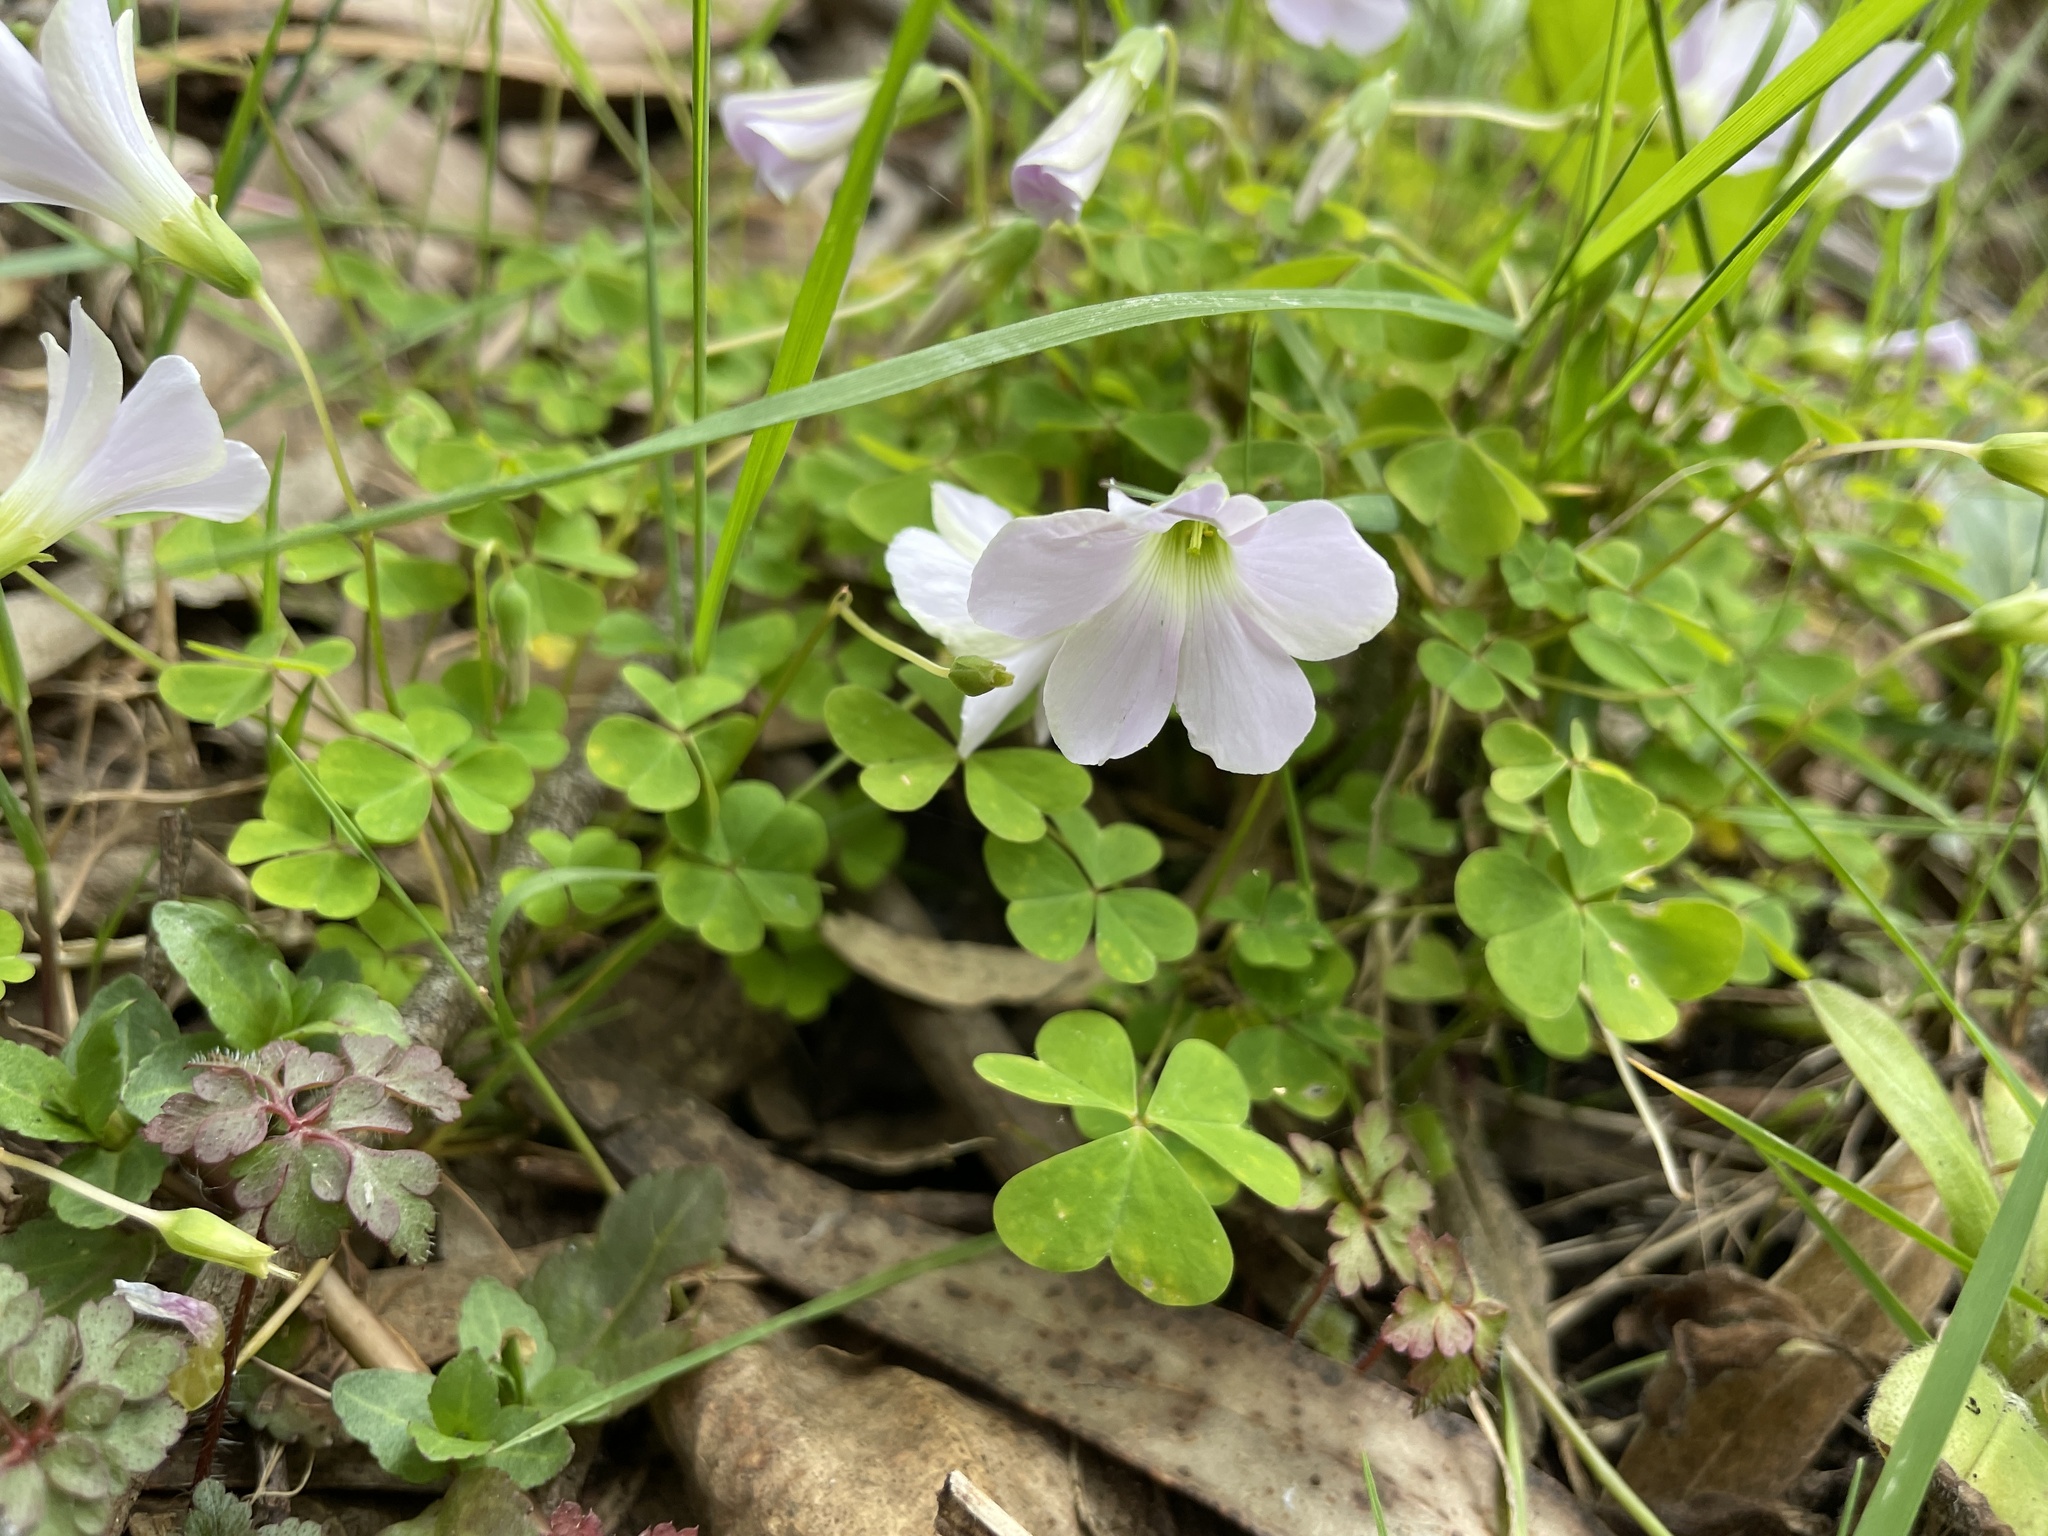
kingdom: Plantae
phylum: Tracheophyta
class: Magnoliopsida
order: Oxalidales
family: Oxalidaceae
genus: Oxalis
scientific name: Oxalis incarnata
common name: Pale pink-sorrel
